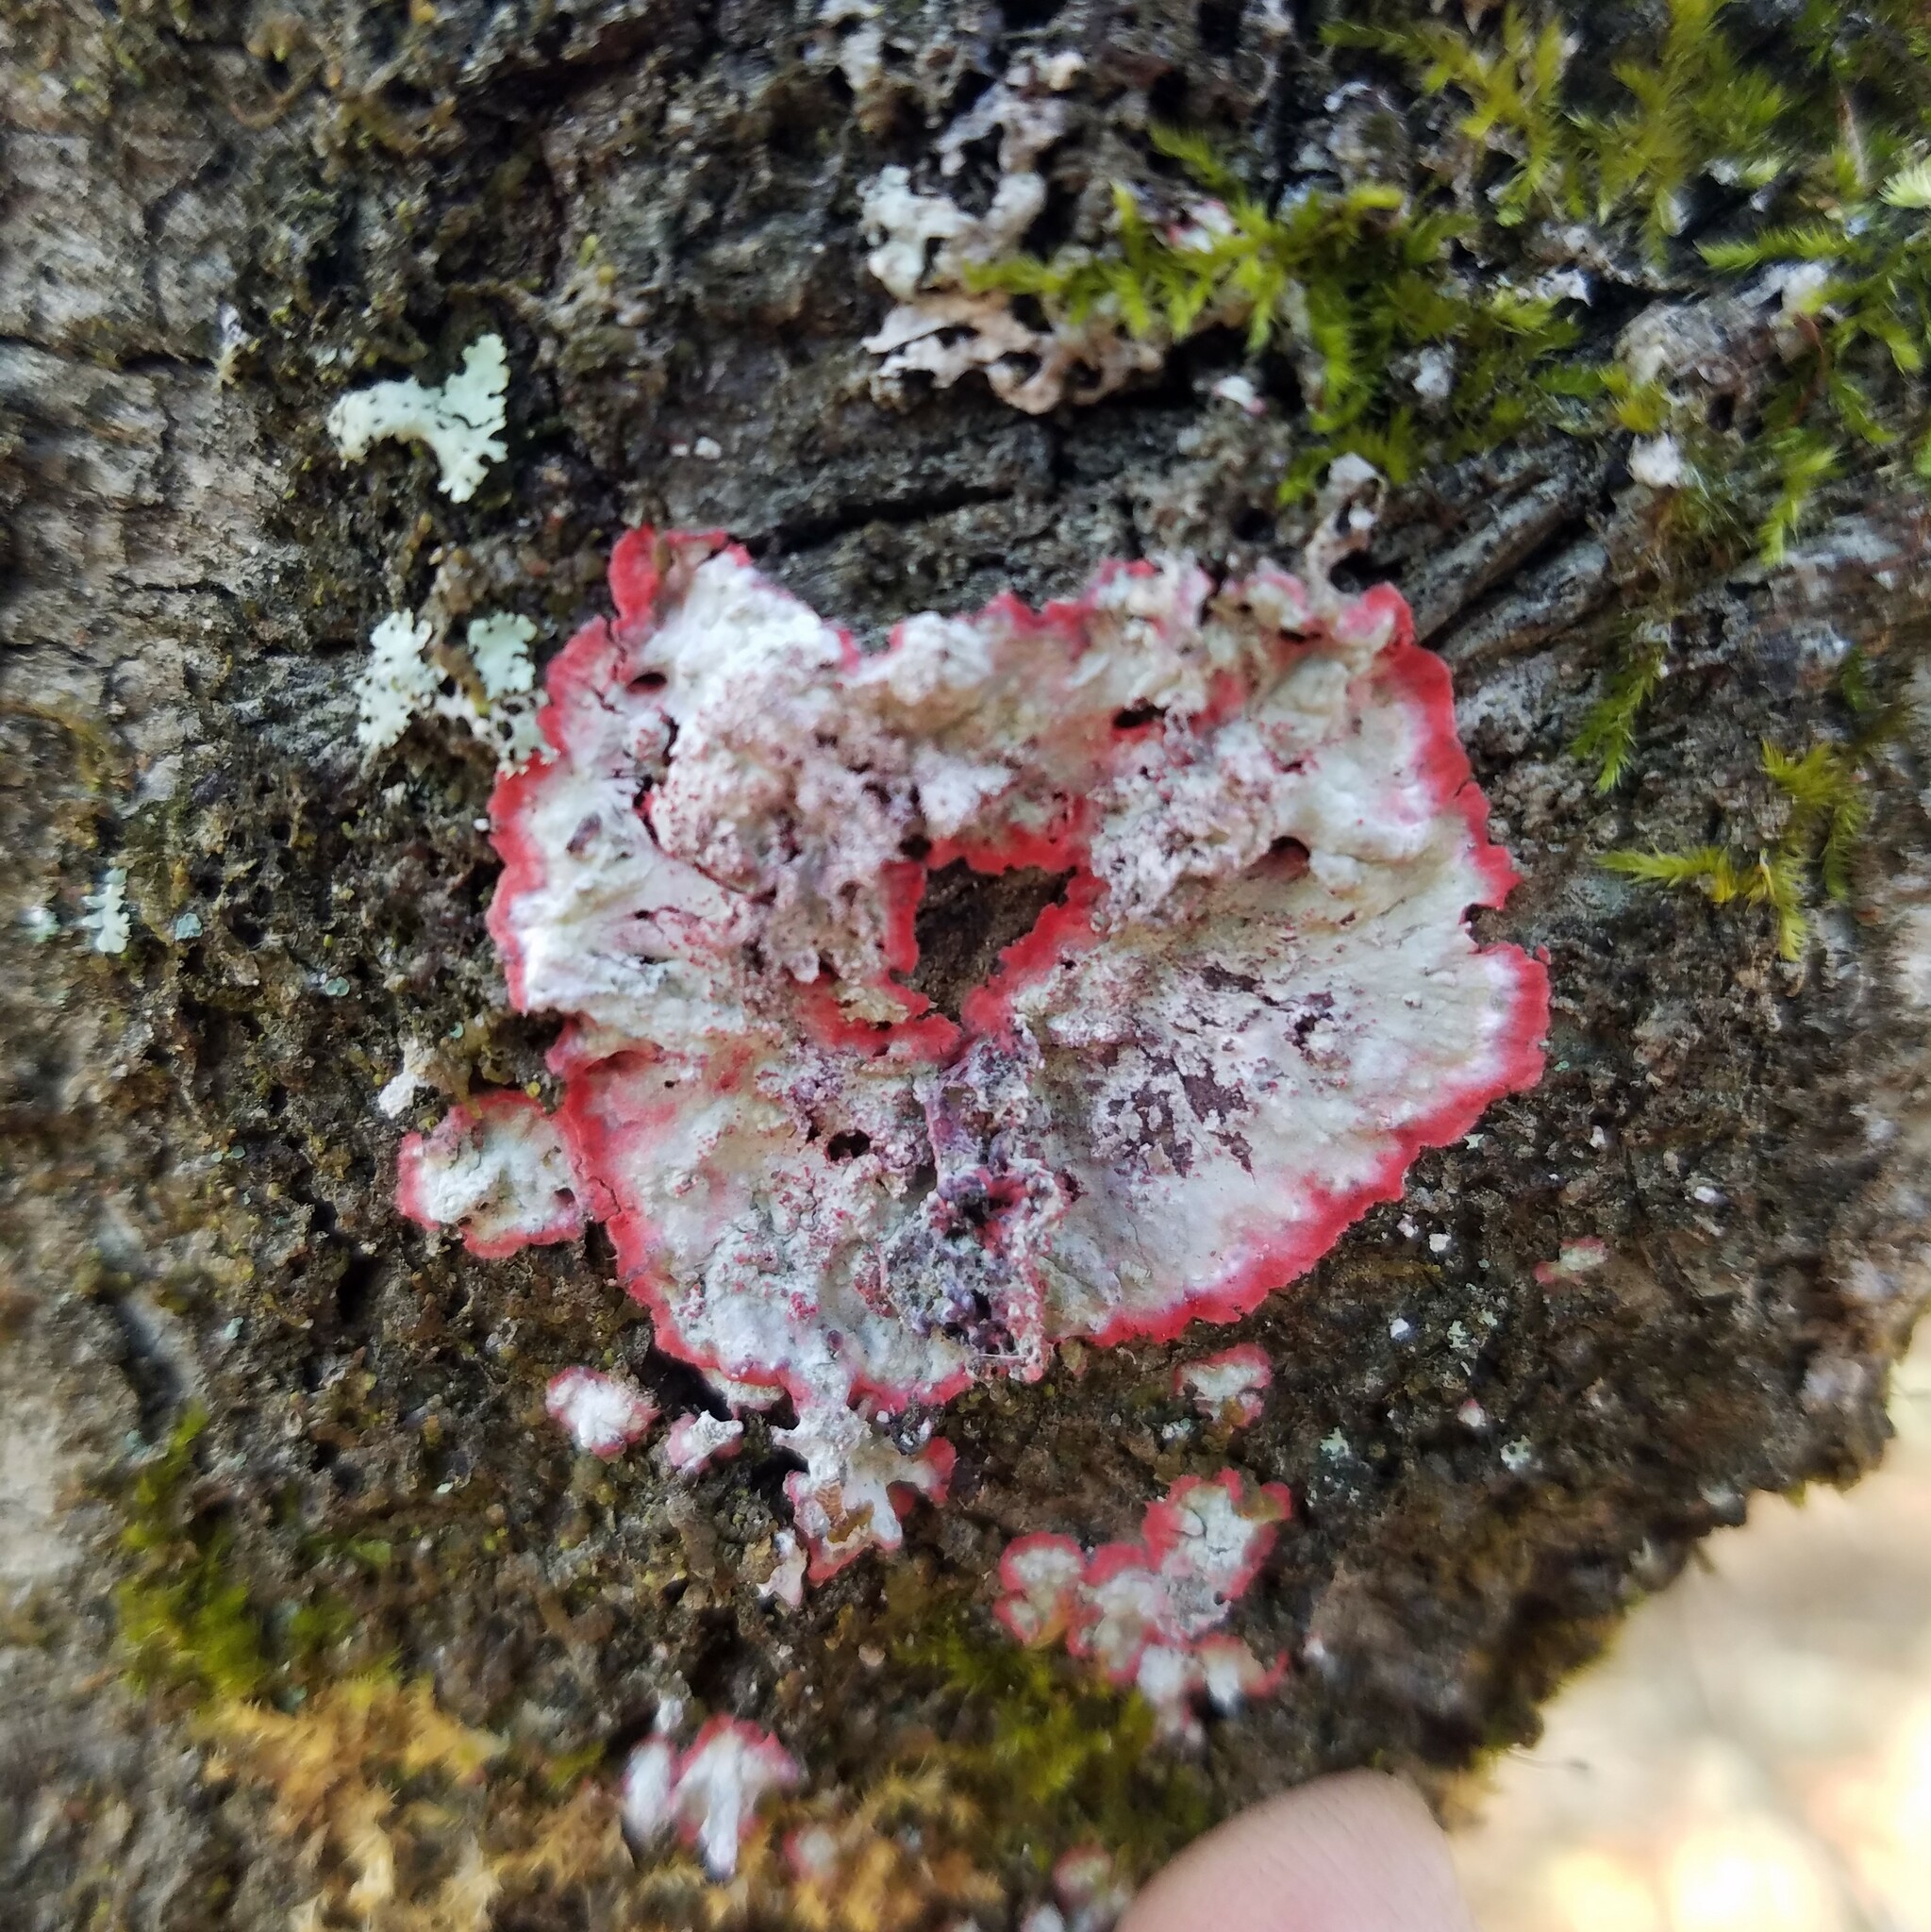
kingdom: Fungi
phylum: Ascomycota
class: Arthoniomycetes
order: Arthoniales
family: Arthoniaceae
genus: Herpothallon
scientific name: Herpothallon rubrocinctum
